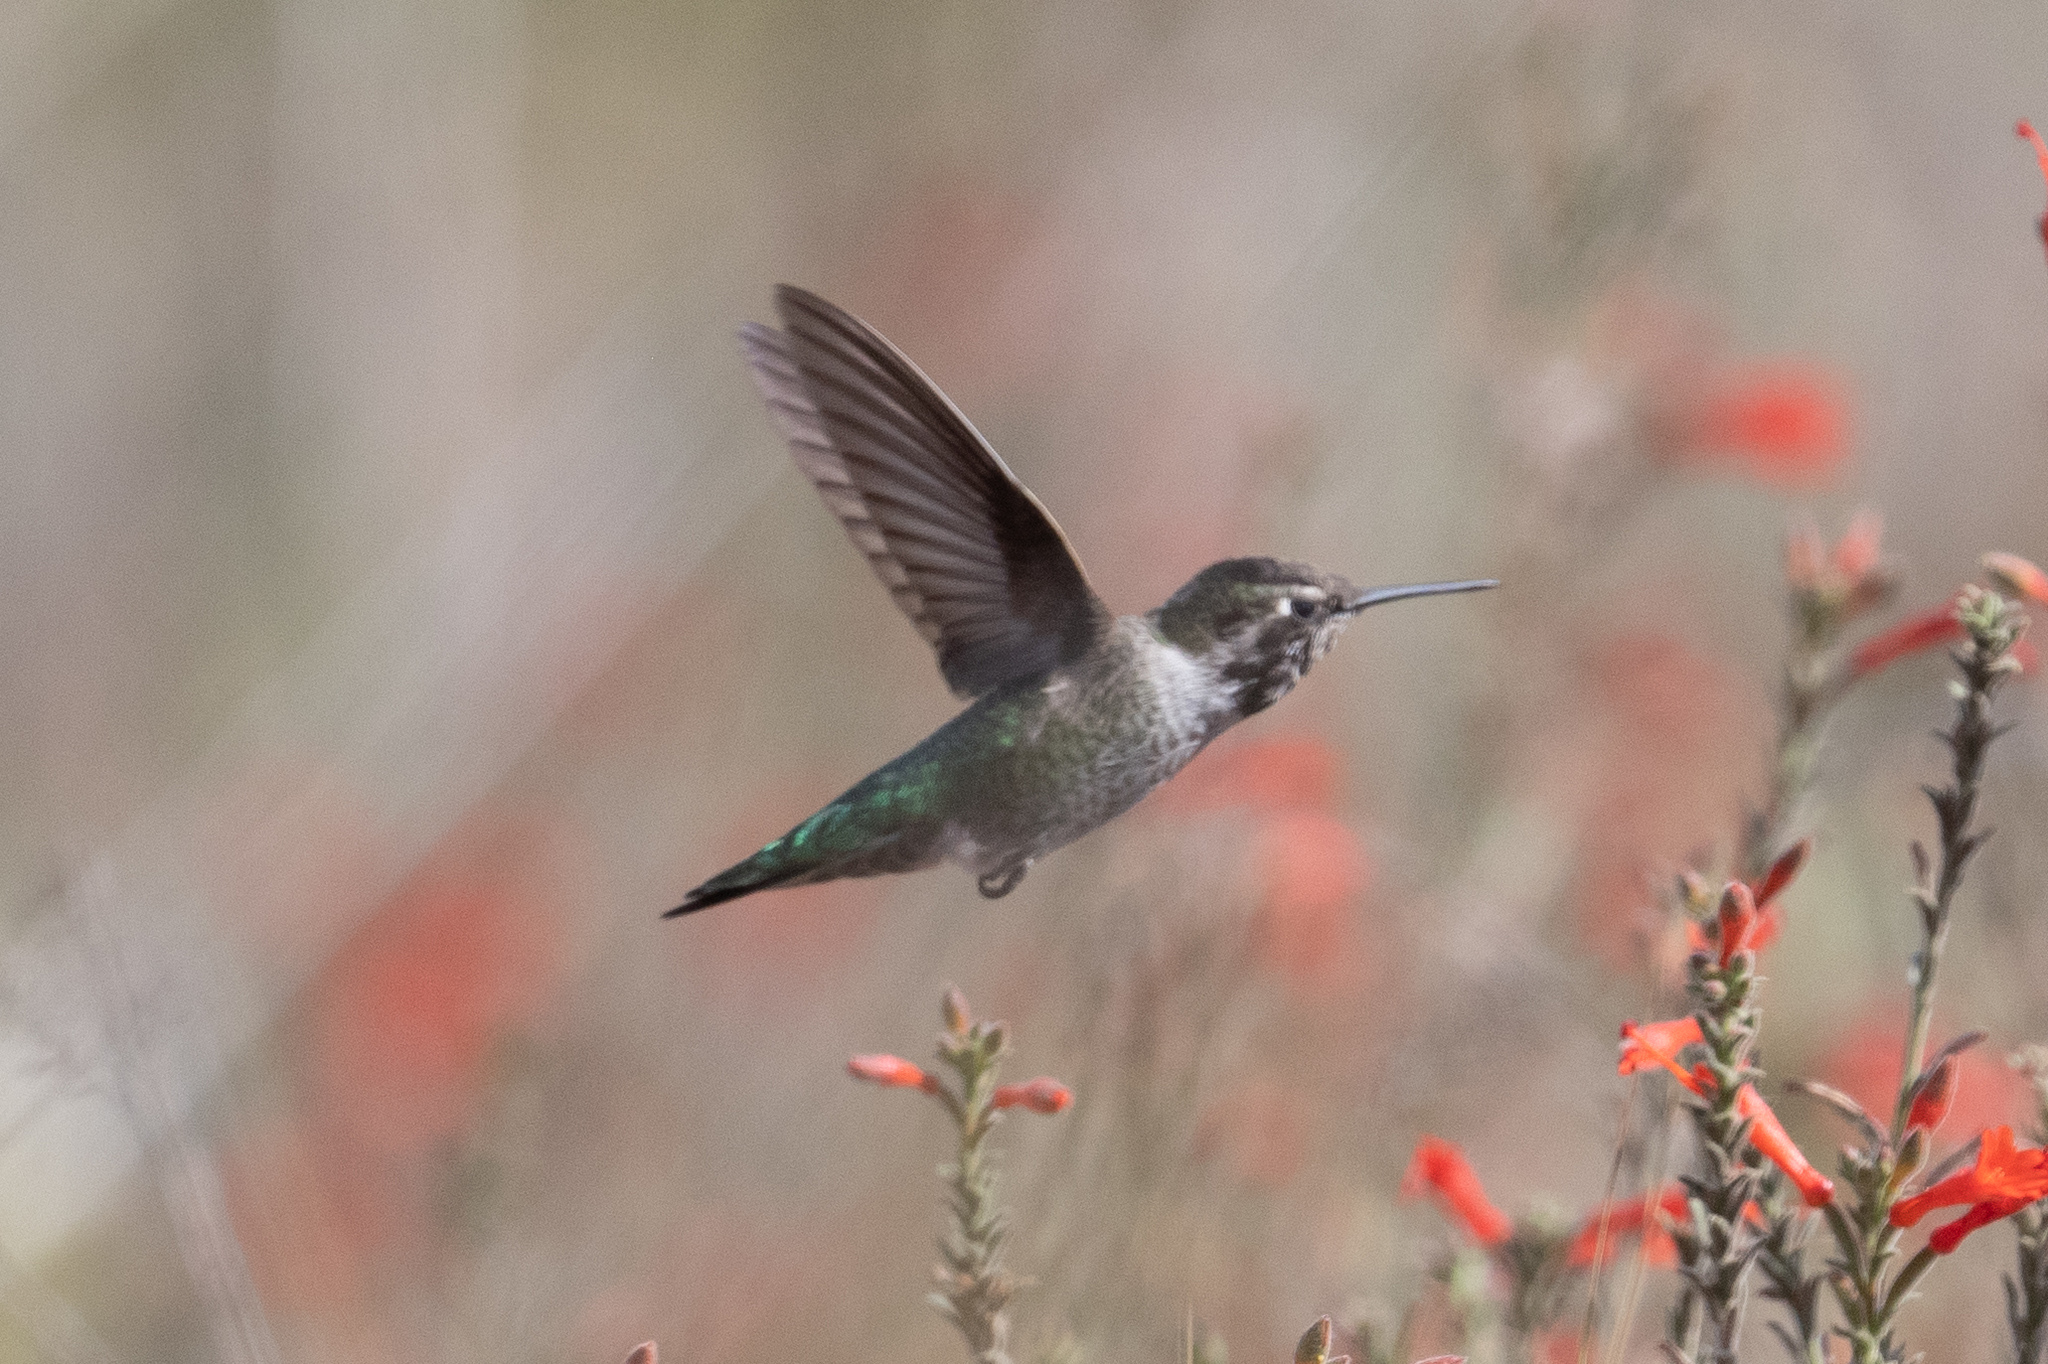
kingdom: Animalia
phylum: Chordata
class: Aves
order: Apodiformes
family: Trochilidae
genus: Calypte
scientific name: Calypte anna
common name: Anna's hummingbird
